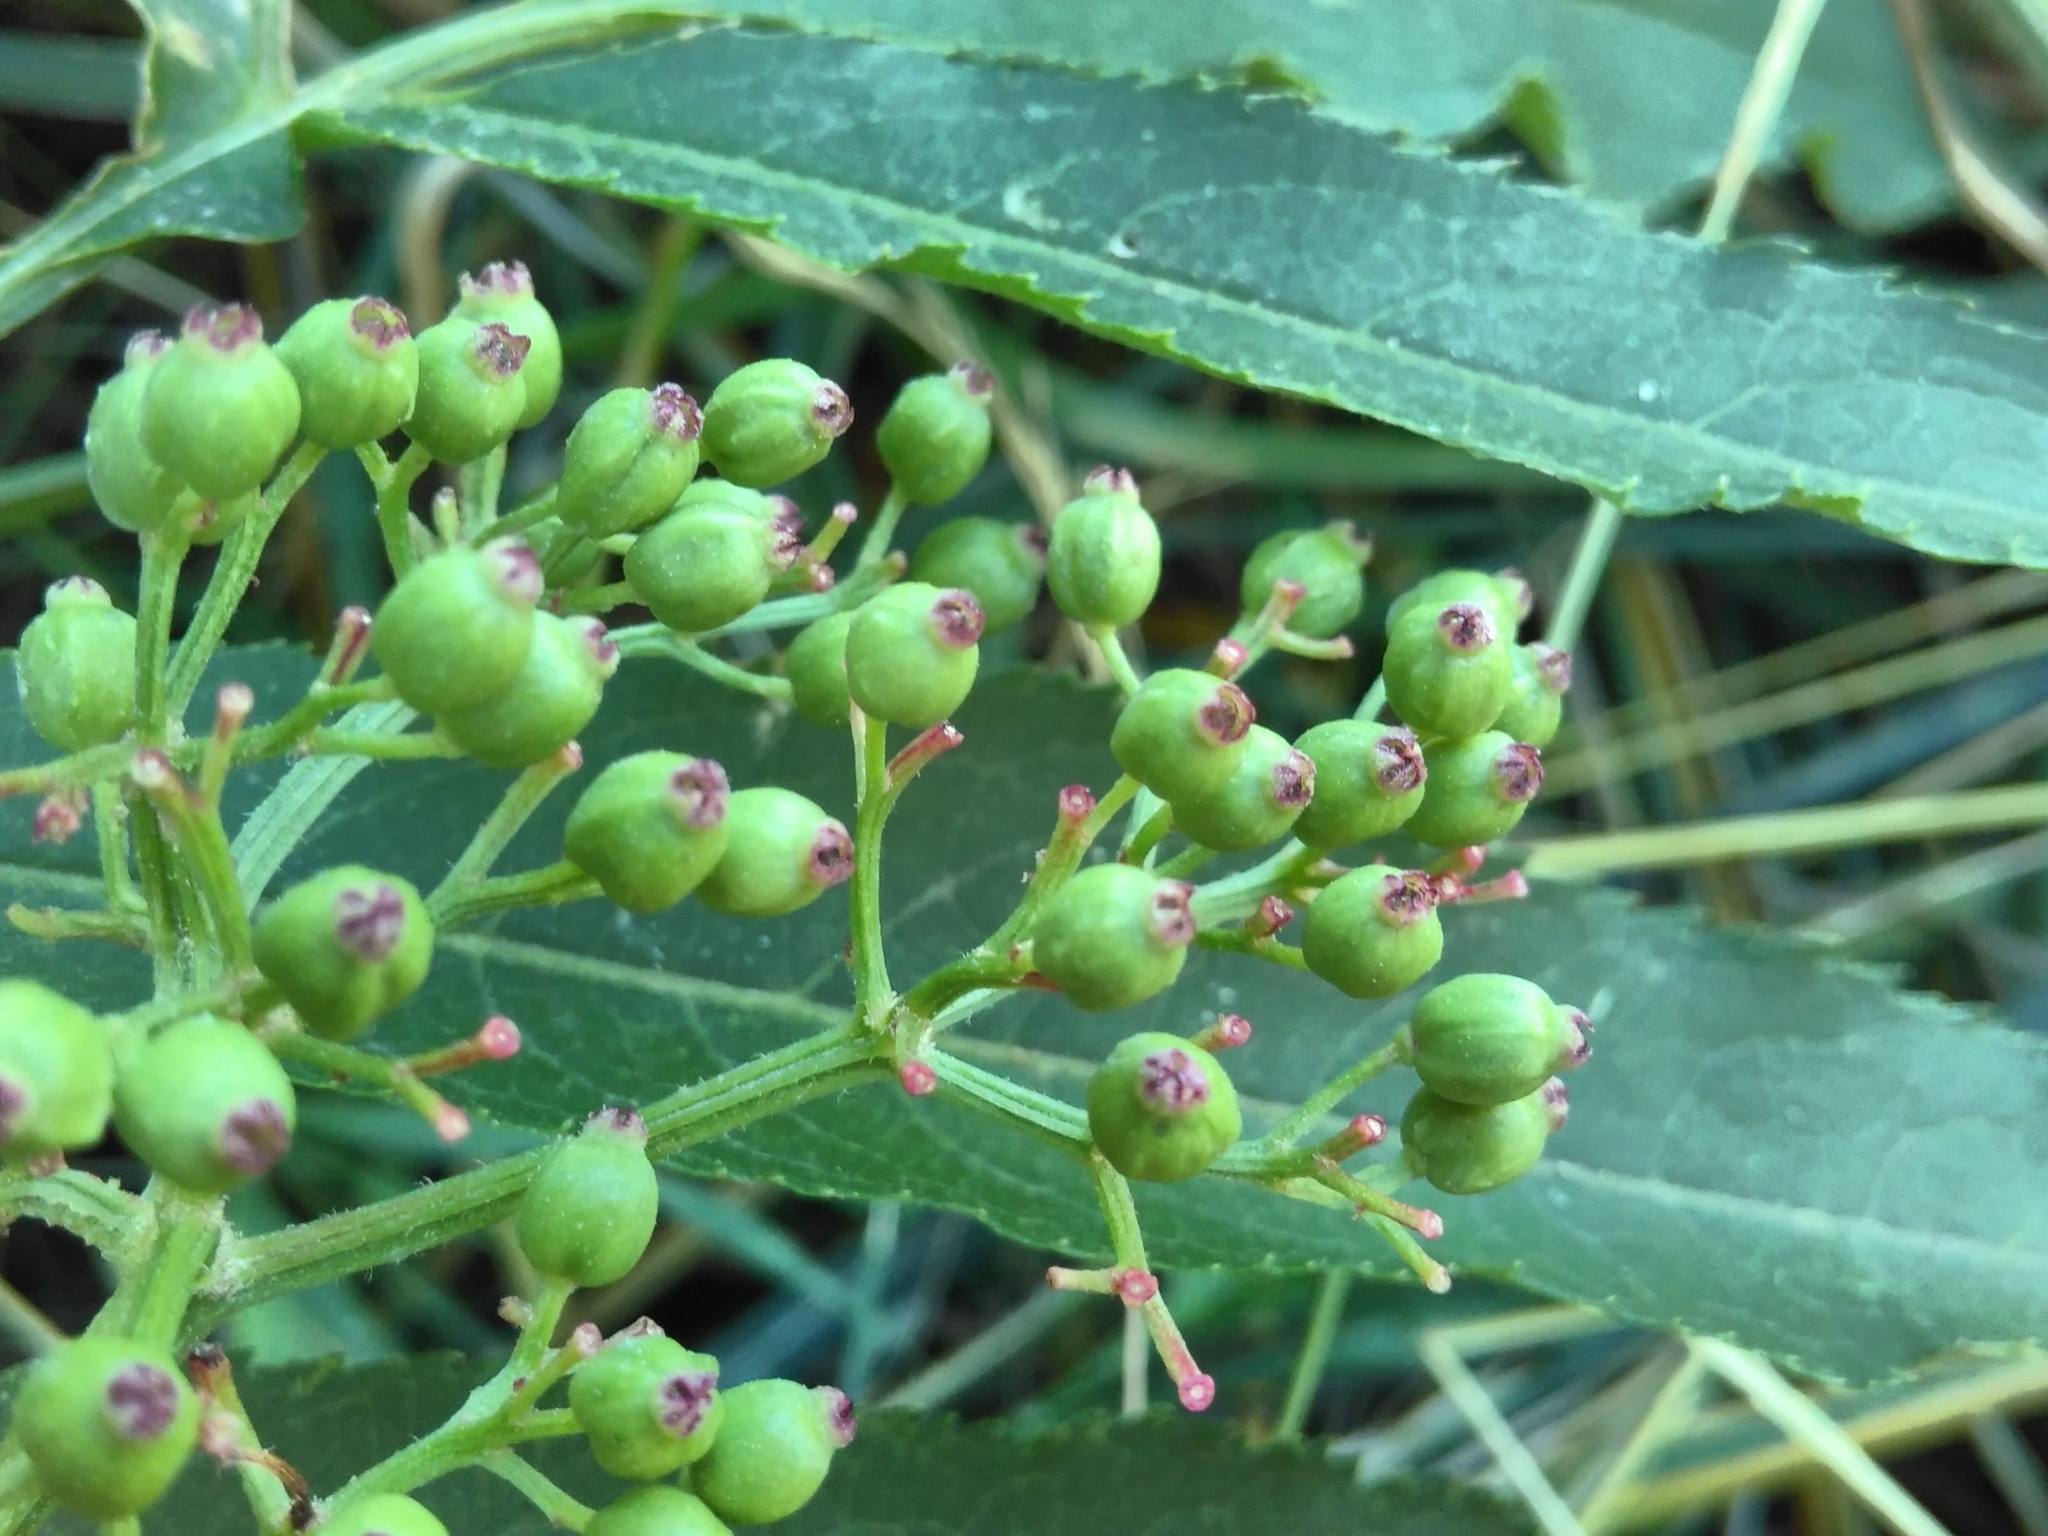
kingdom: Plantae
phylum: Tracheophyta
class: Magnoliopsida
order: Dipsacales
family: Viburnaceae
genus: Sambucus
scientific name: Sambucus ebulus
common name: Dwarf elder
